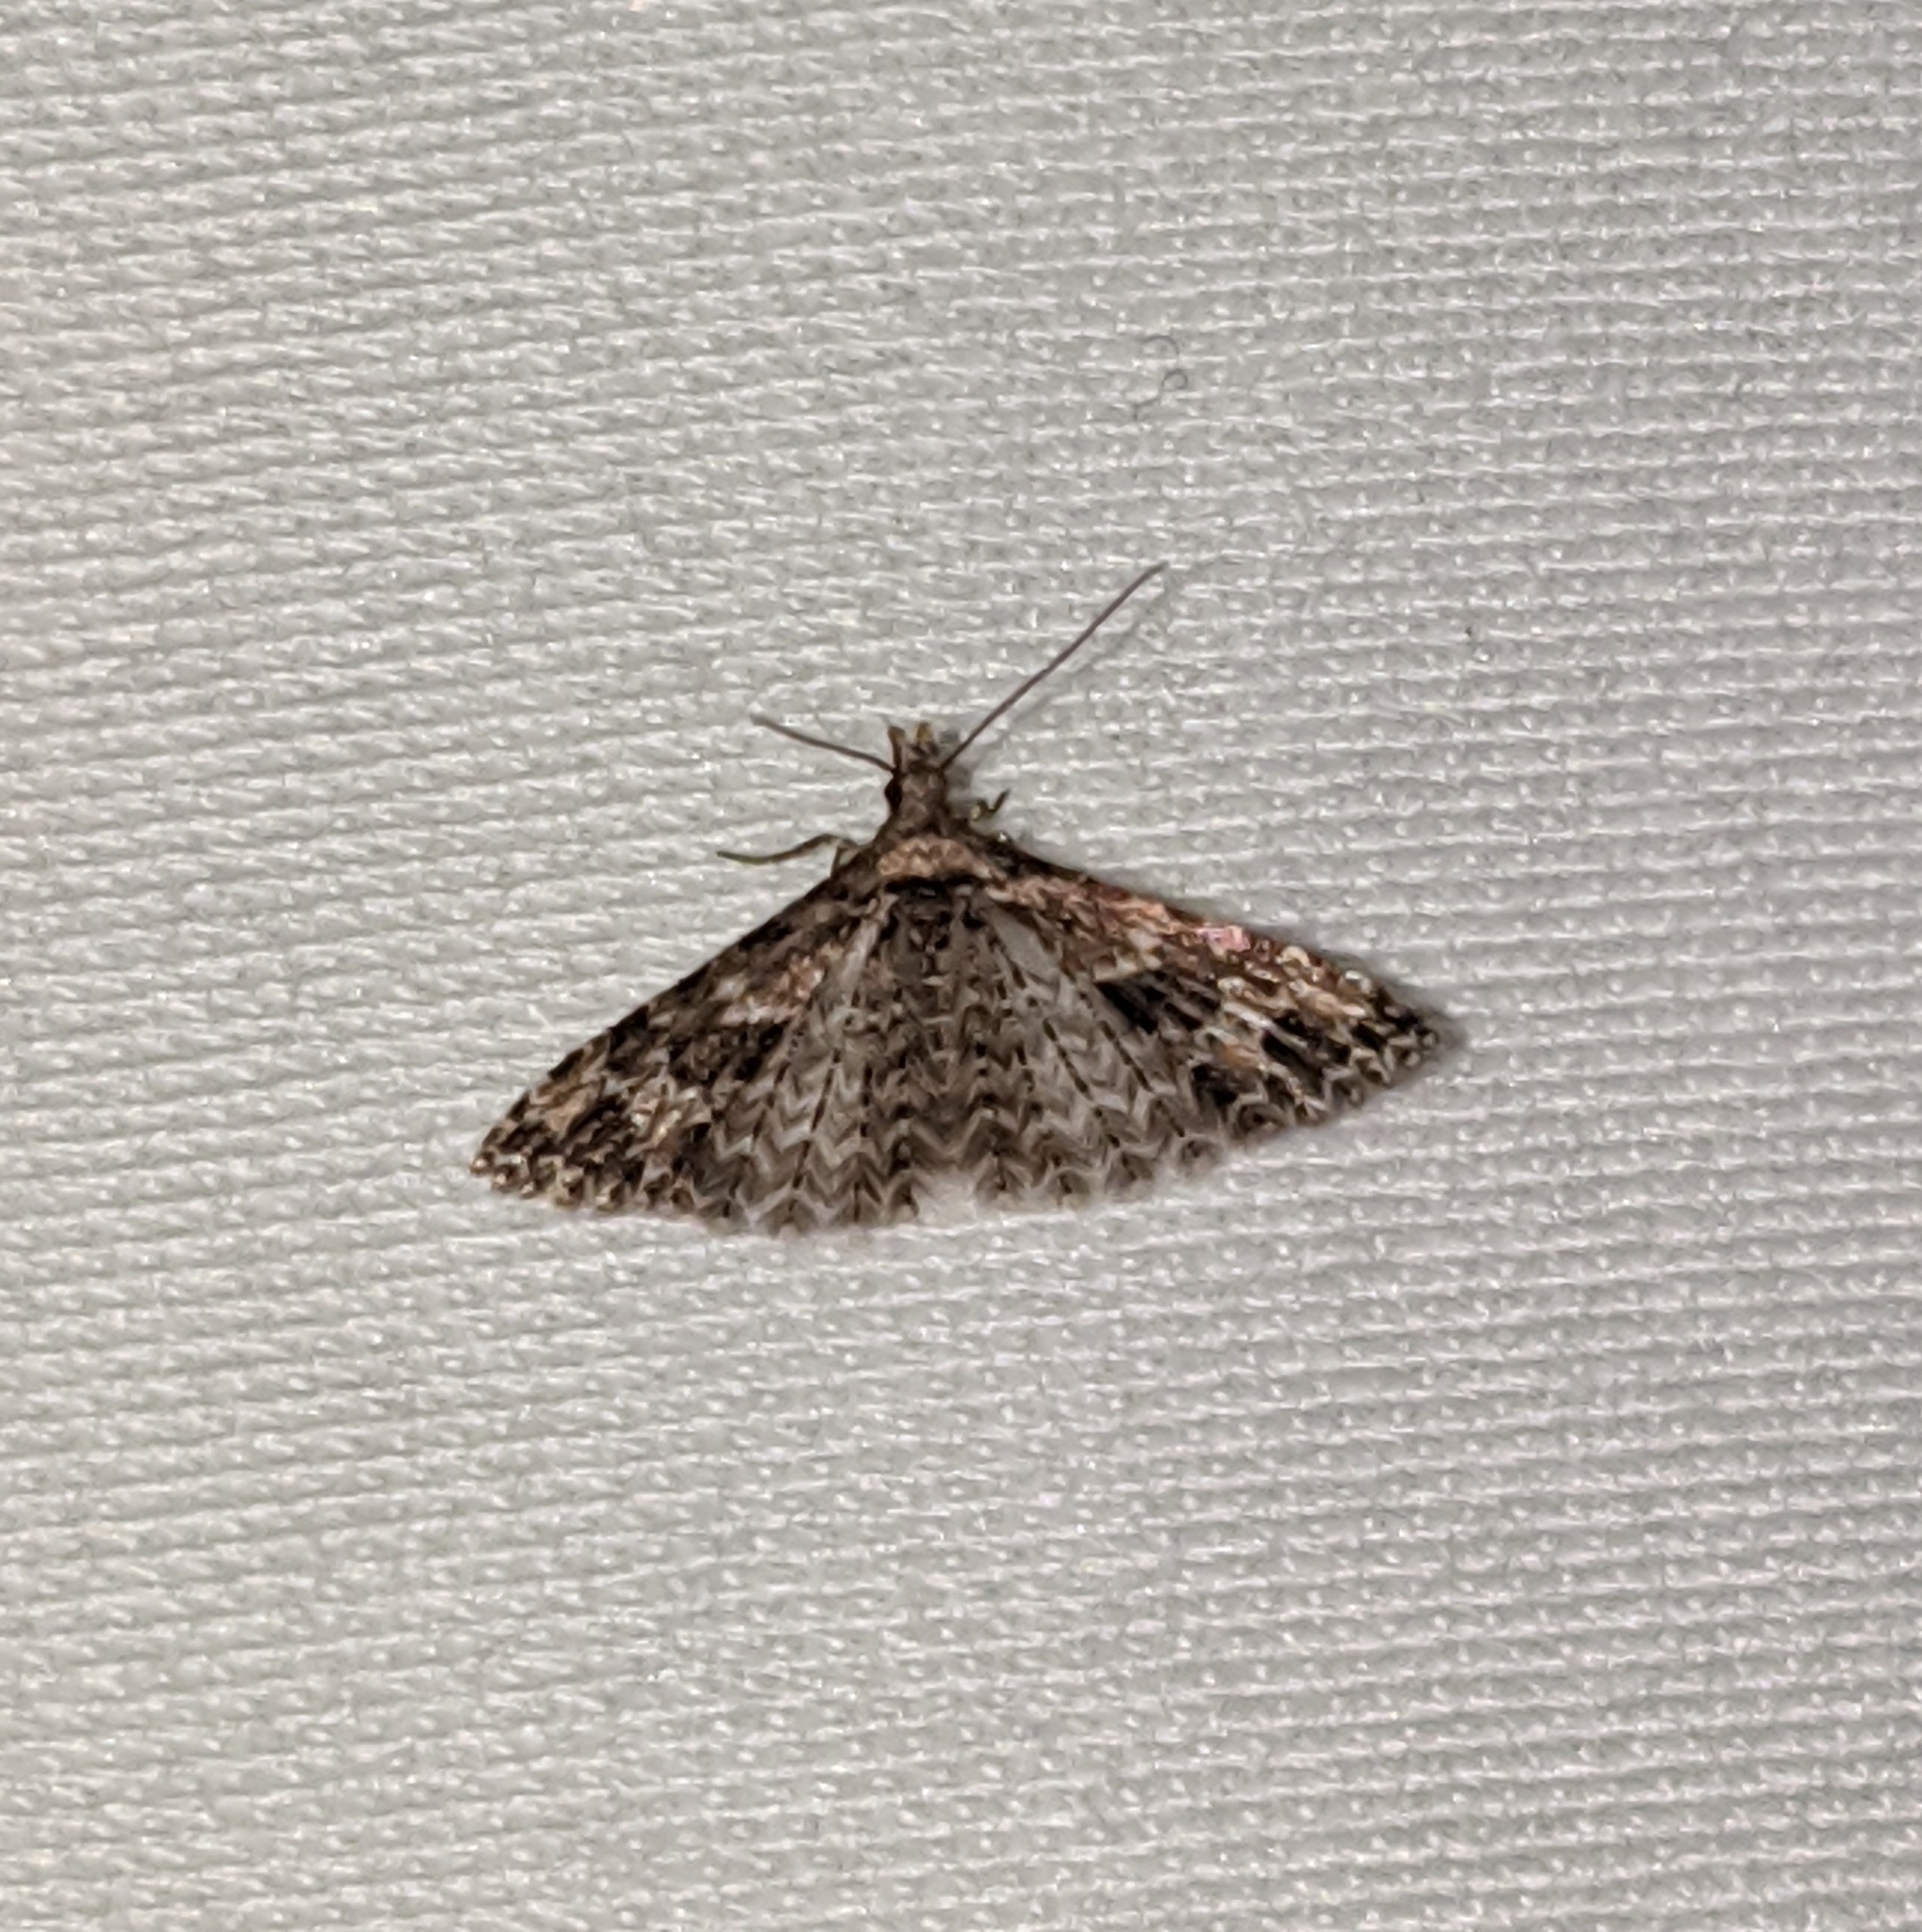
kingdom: Animalia
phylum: Arthropoda
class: Insecta
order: Lepidoptera
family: Alucitidae
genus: Alucita
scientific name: Alucita montana
